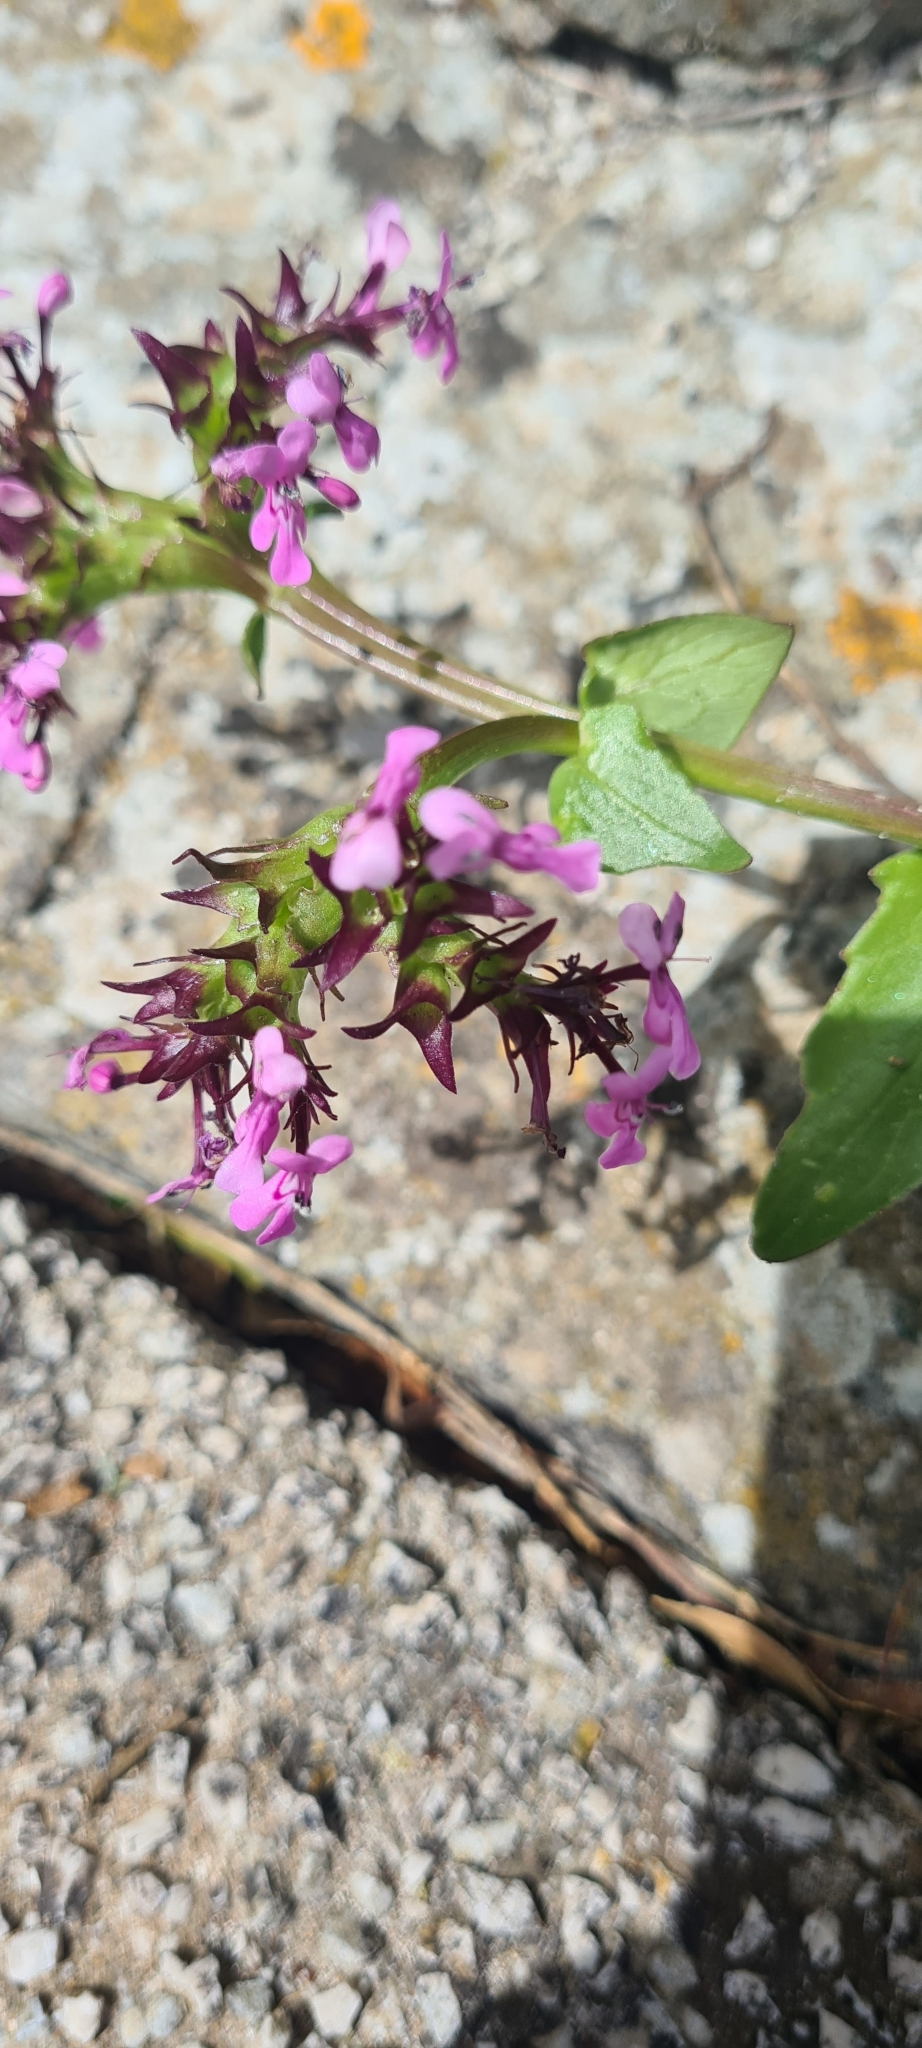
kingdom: Plantae
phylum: Tracheophyta
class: Magnoliopsida
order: Dipsacales
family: Caprifoliaceae
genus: Fedia
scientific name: Fedia graciliflora
